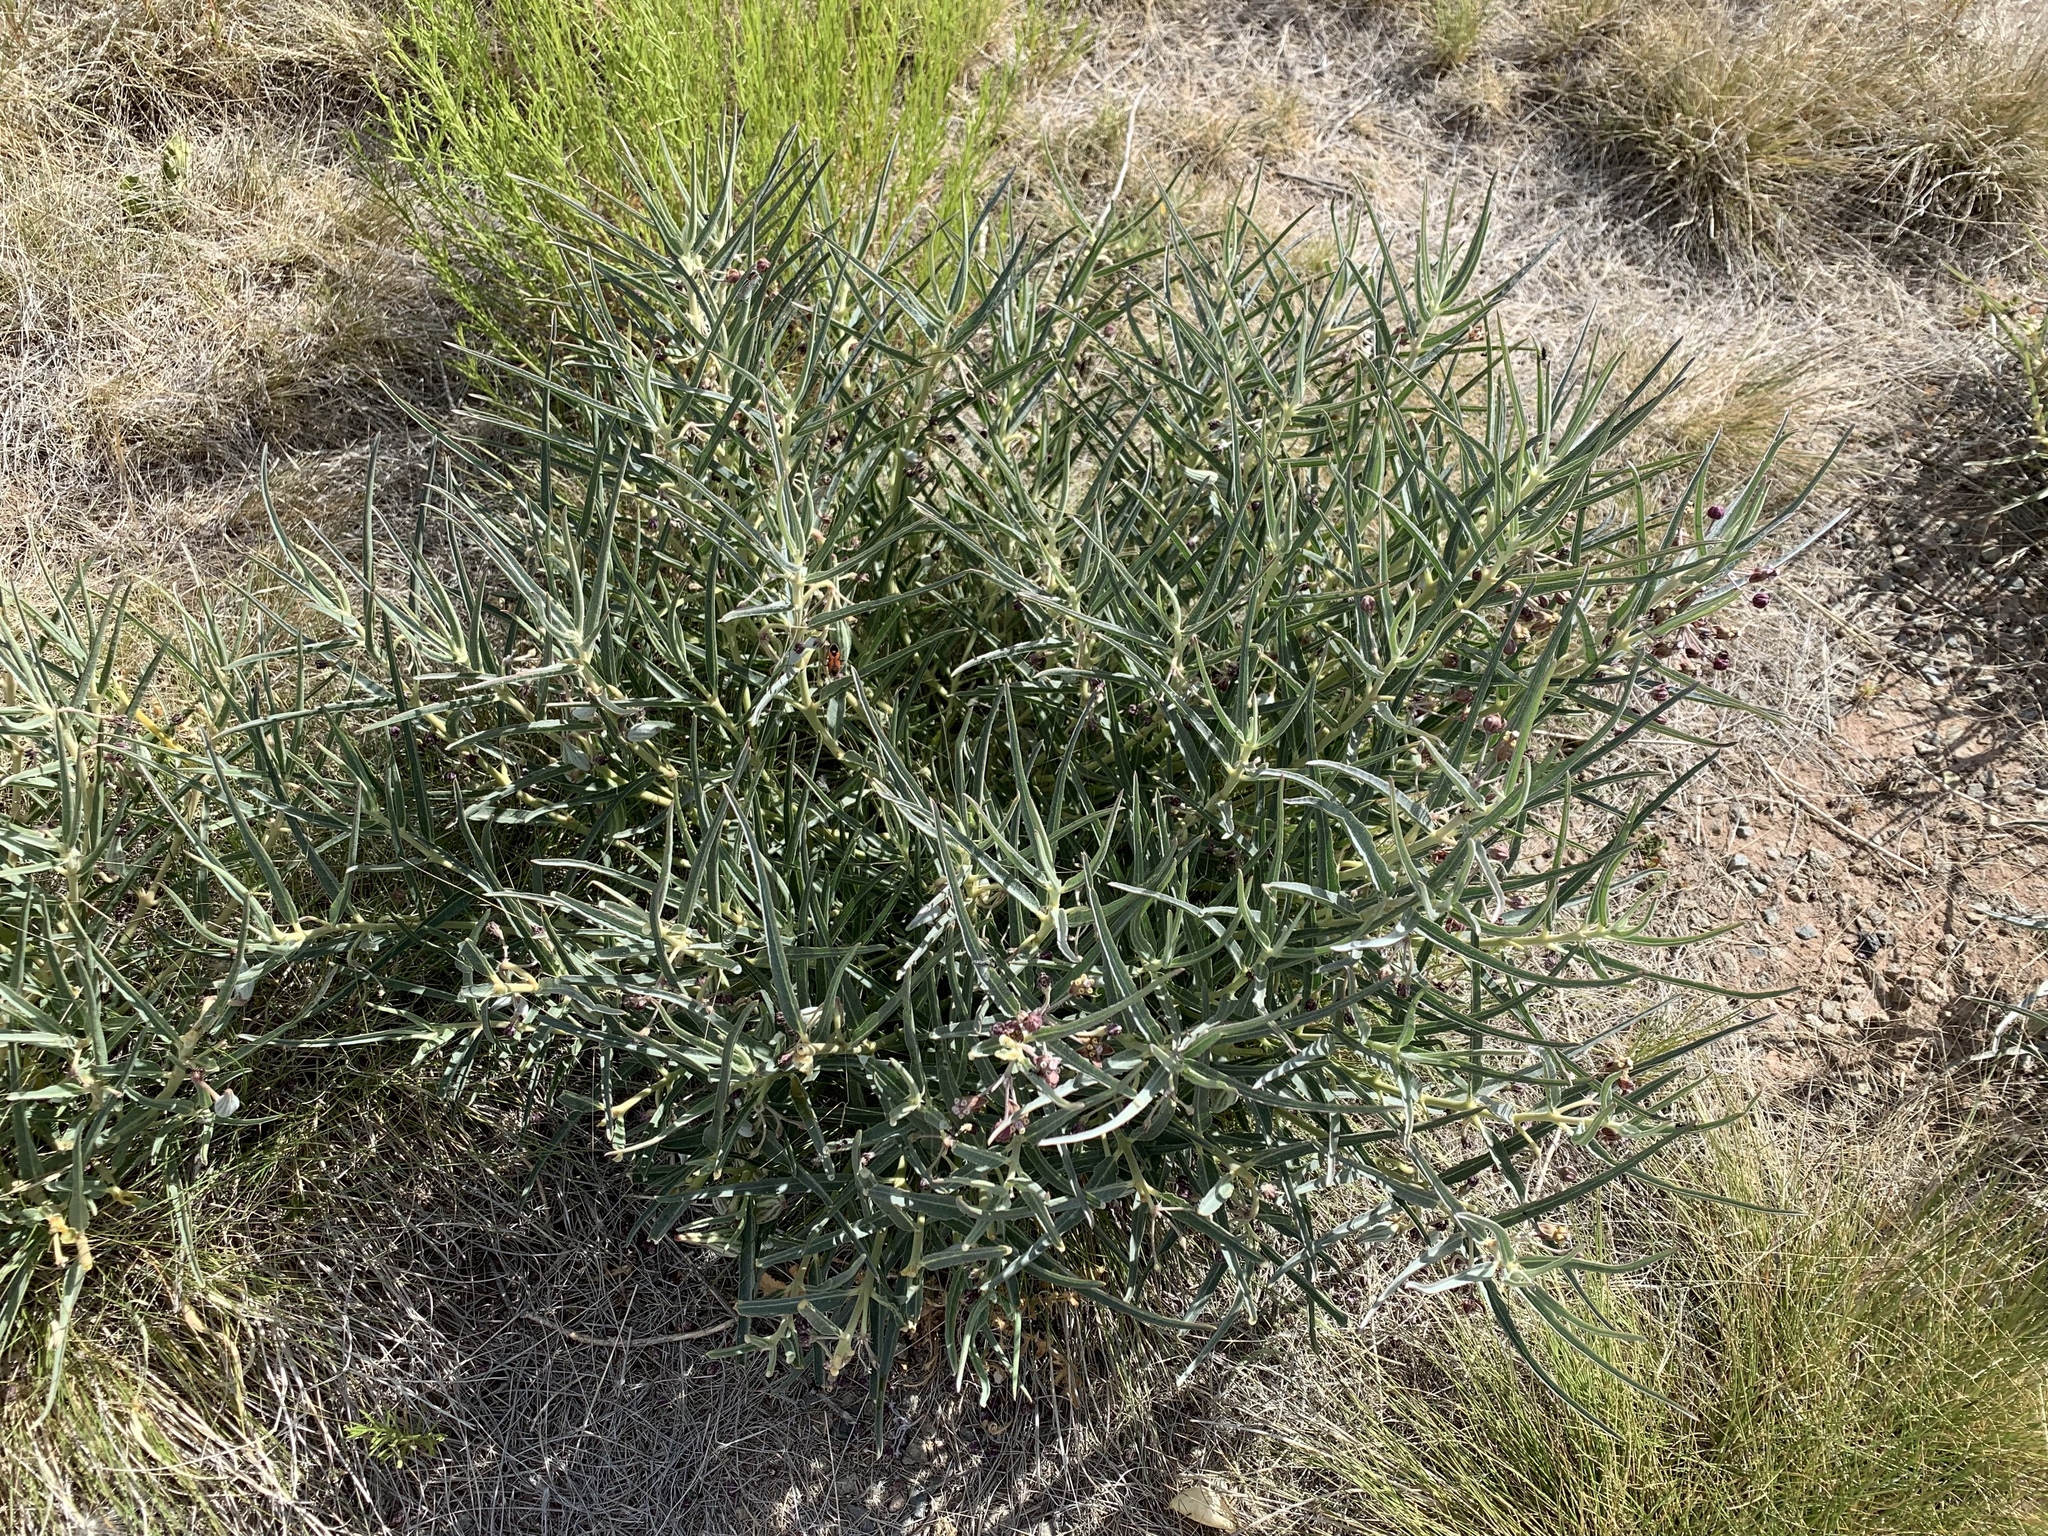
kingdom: Plantae
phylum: Tracheophyta
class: Magnoliopsida
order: Gentianales
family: Apocynaceae
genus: Asclepias
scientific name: Asclepias brachystephana
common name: Shortcrown milkweed
